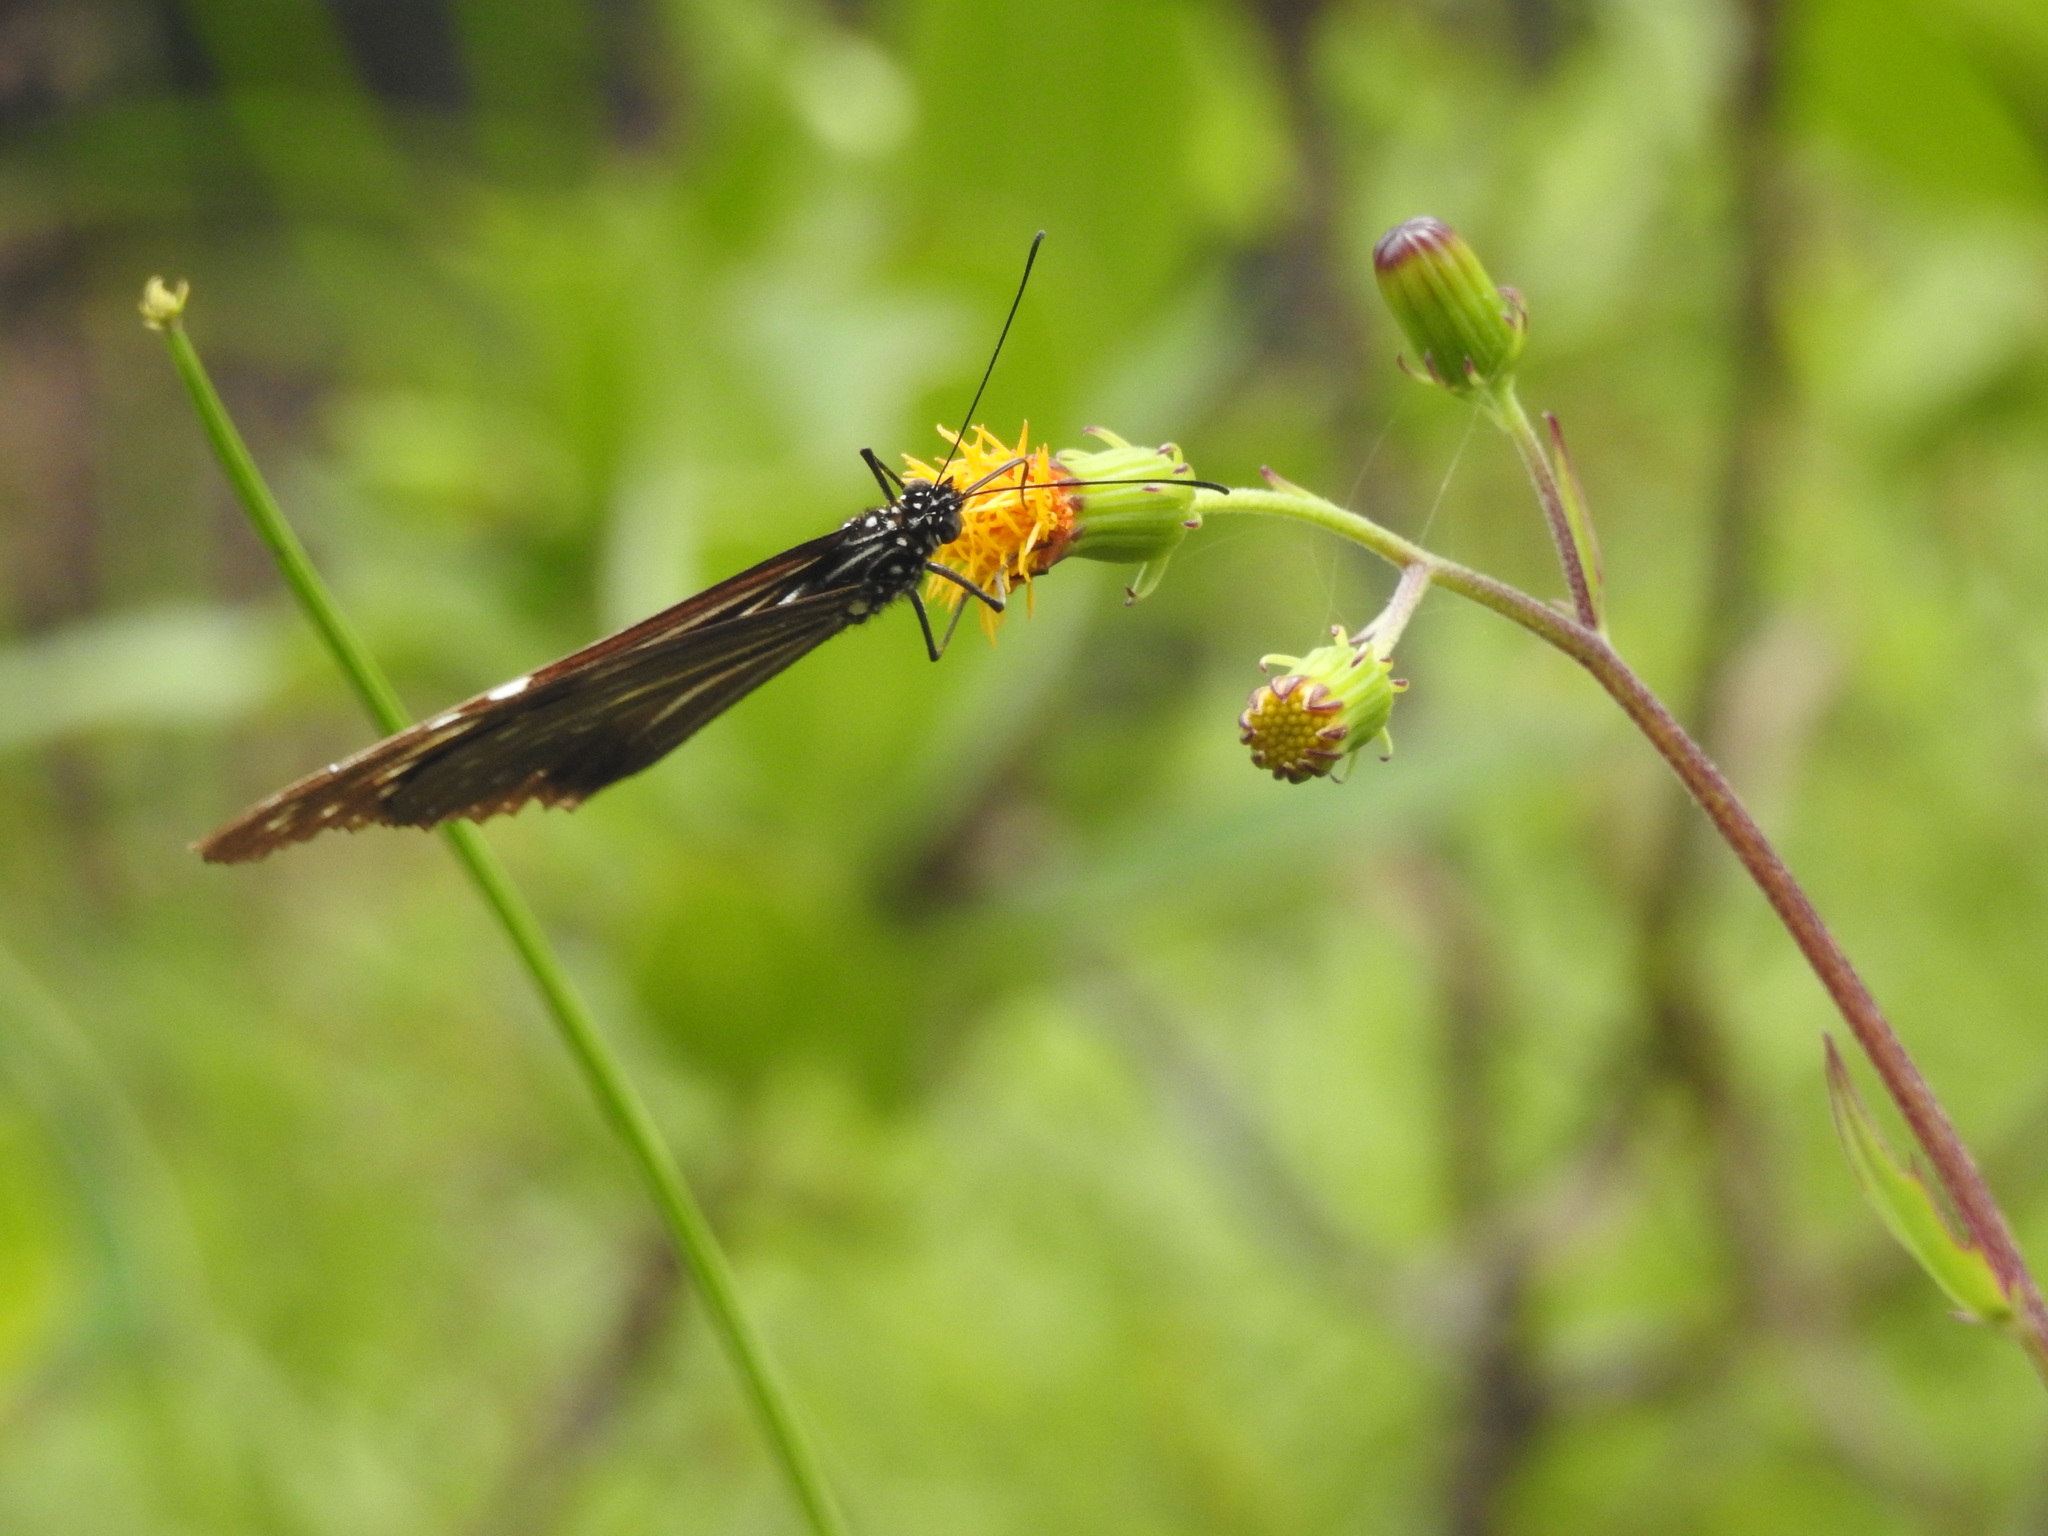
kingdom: Animalia
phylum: Arthropoda
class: Insecta
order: Lepidoptera
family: Nymphalidae
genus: Parantica
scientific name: Parantica nilgiriensis
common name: Nilgiri tiger
